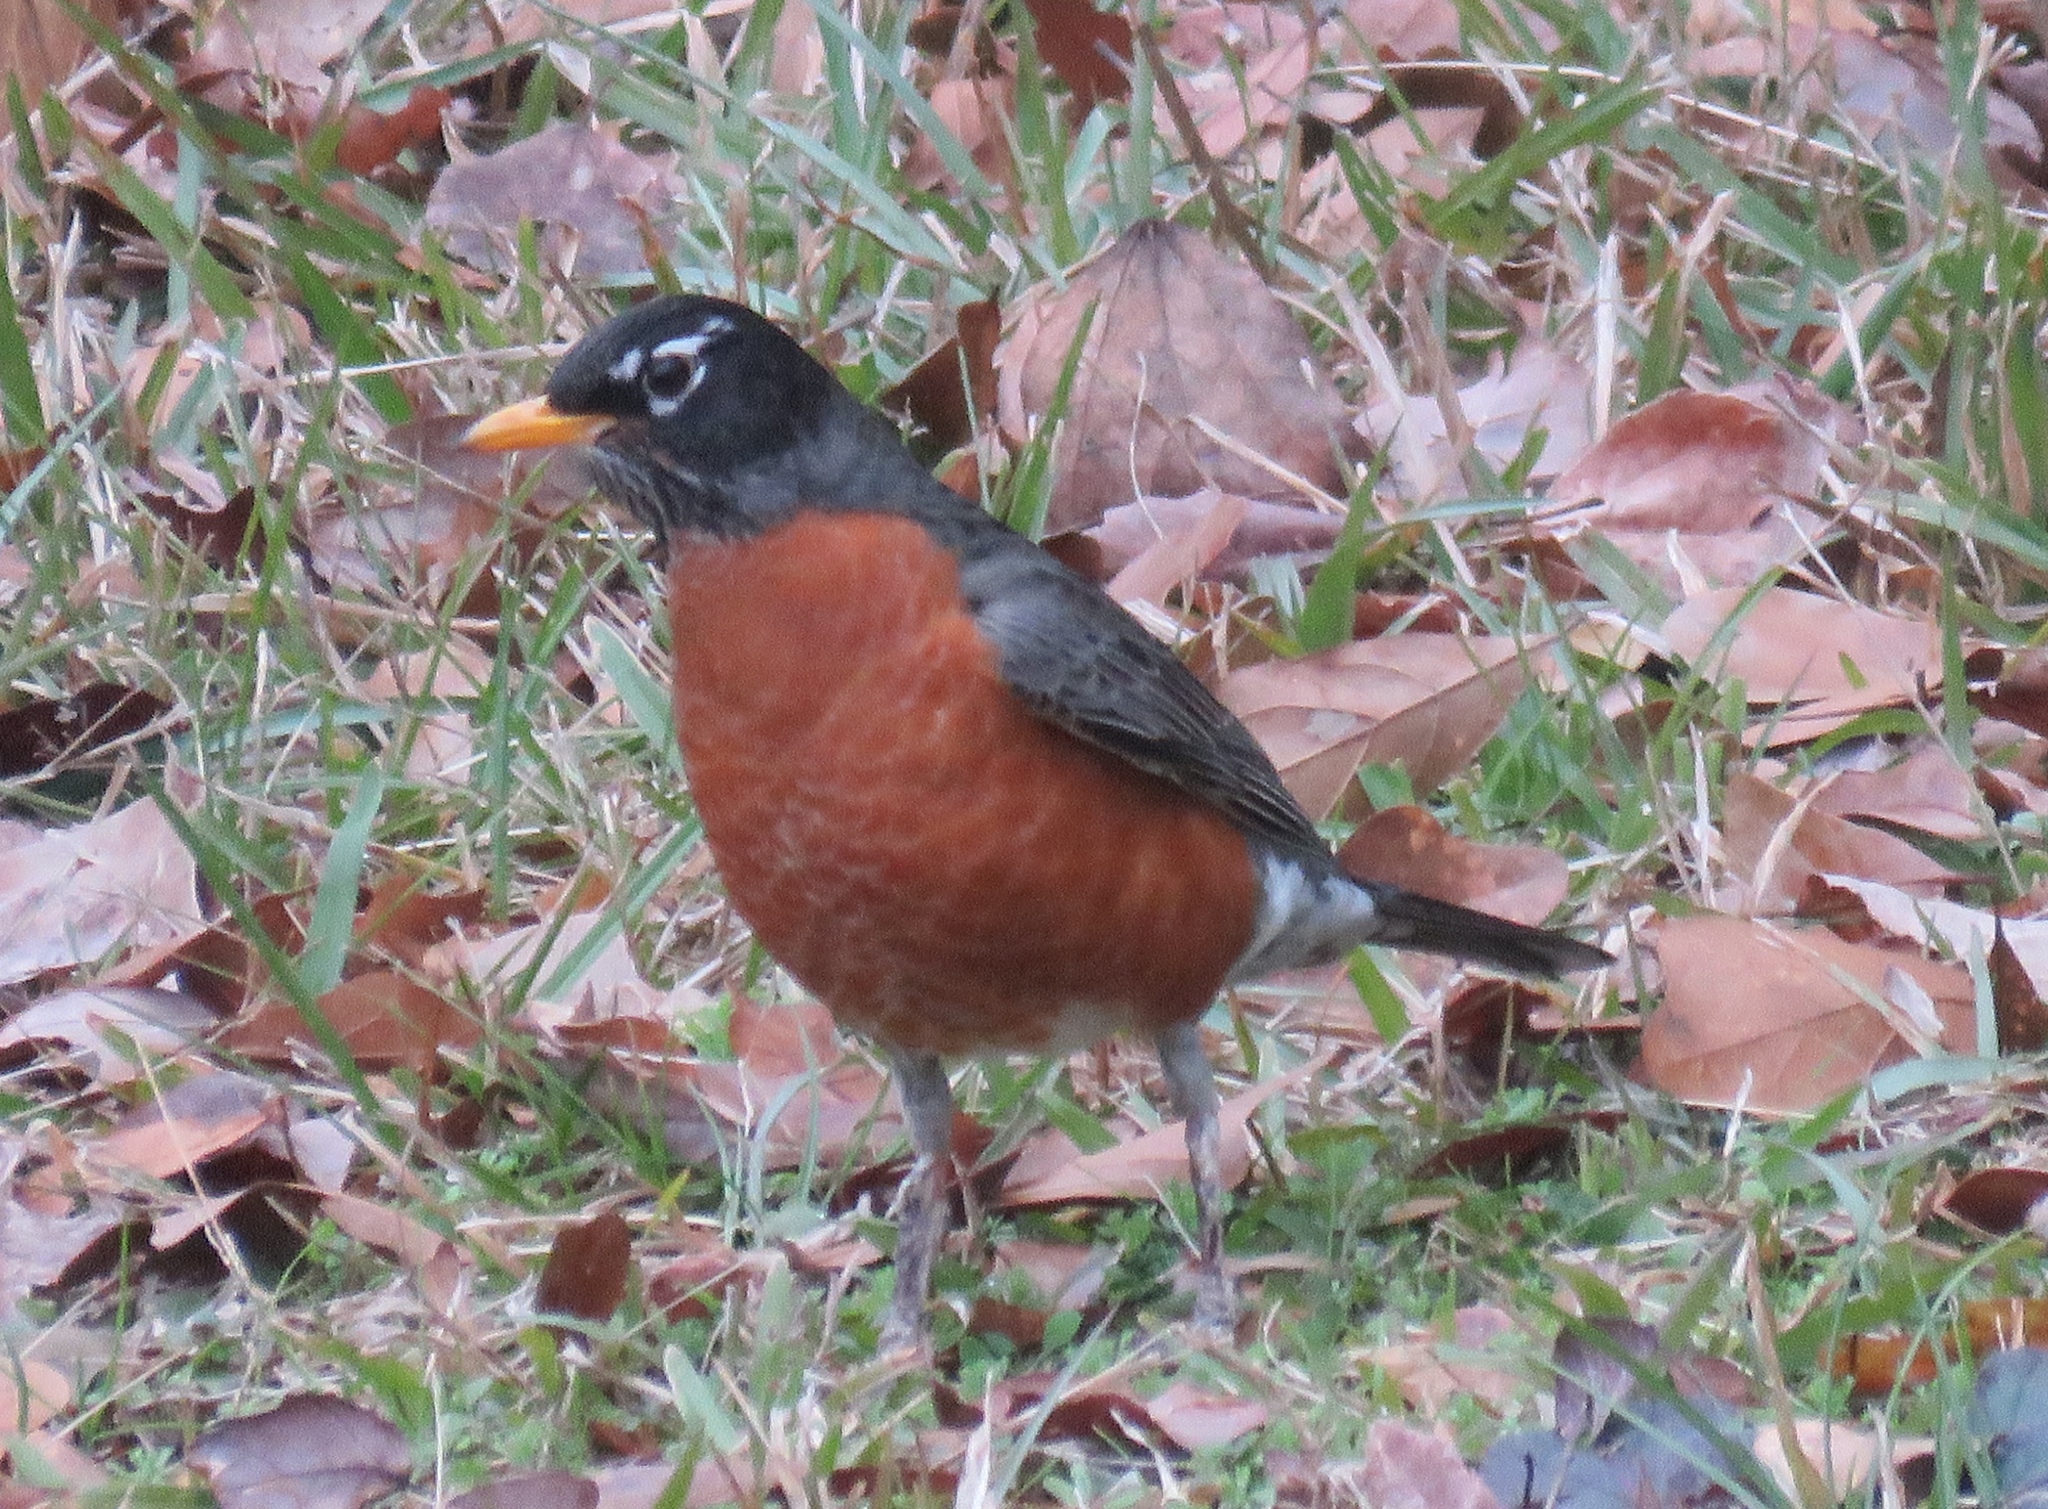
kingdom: Animalia
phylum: Chordata
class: Aves
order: Passeriformes
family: Turdidae
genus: Turdus
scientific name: Turdus migratorius
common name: American robin
